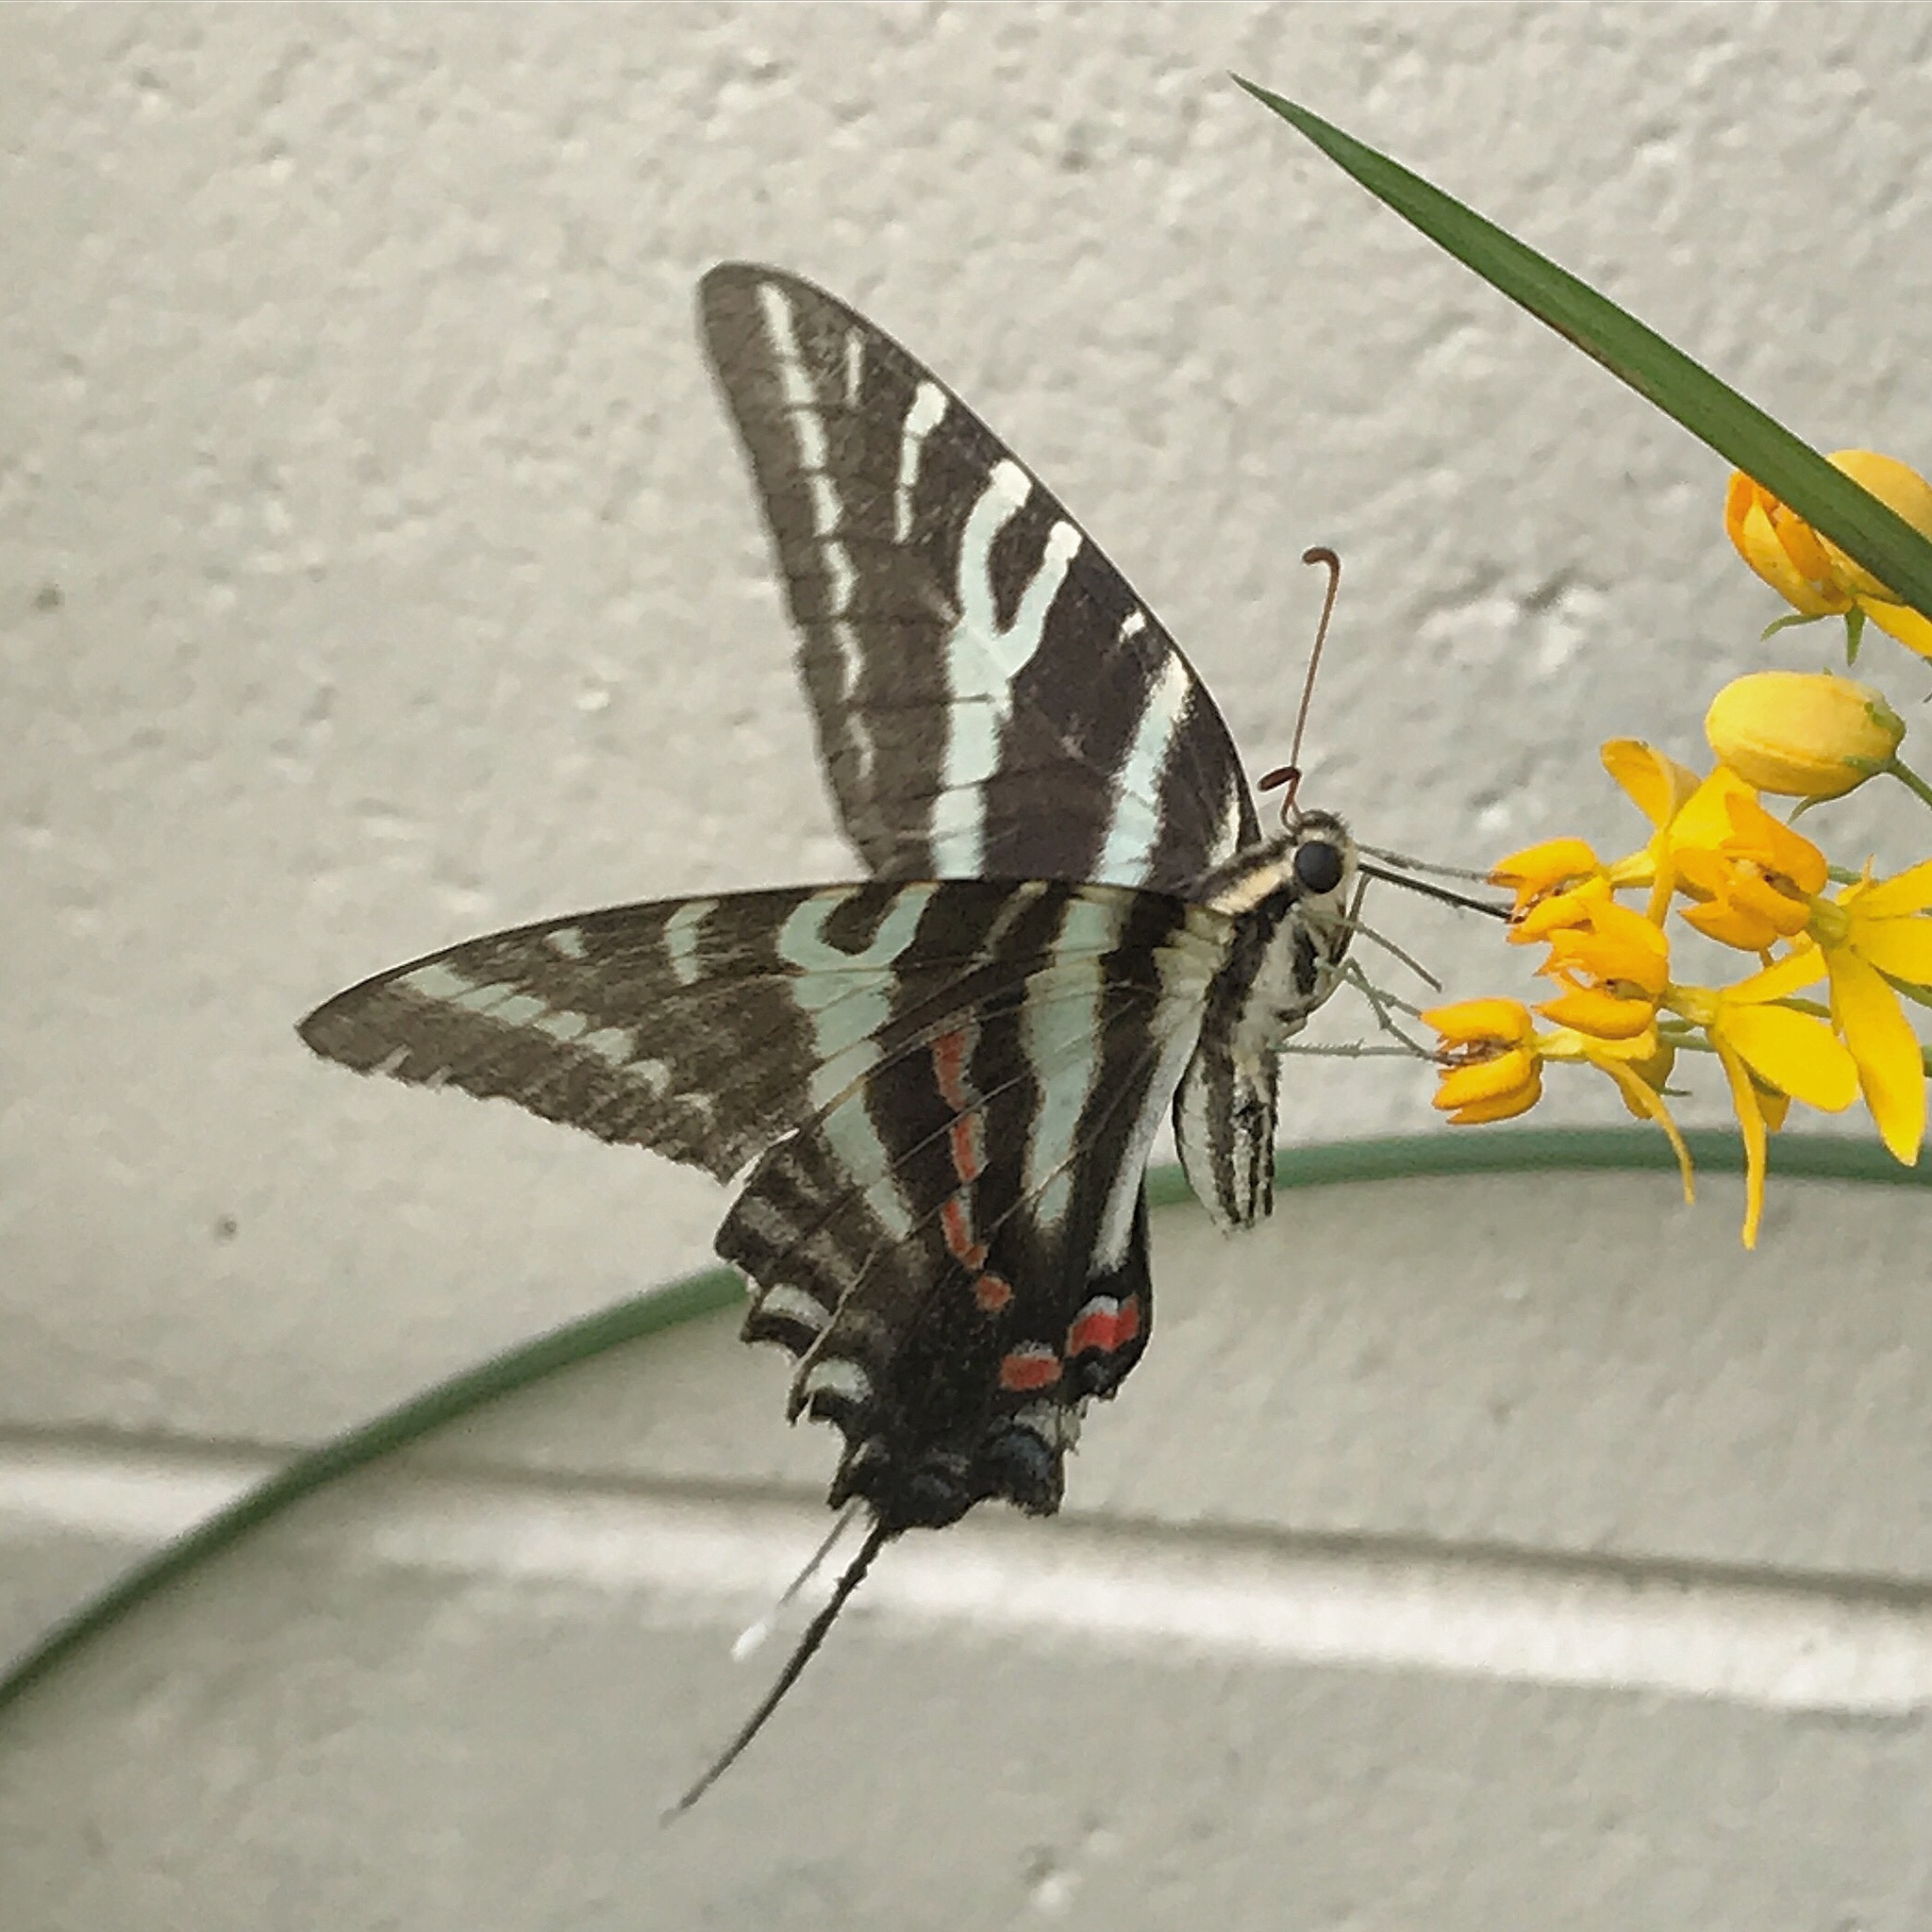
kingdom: Animalia
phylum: Arthropoda
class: Insecta
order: Lepidoptera
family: Papilionidae
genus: Protographium
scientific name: Protographium marcellus
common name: Zebra swallowtail
